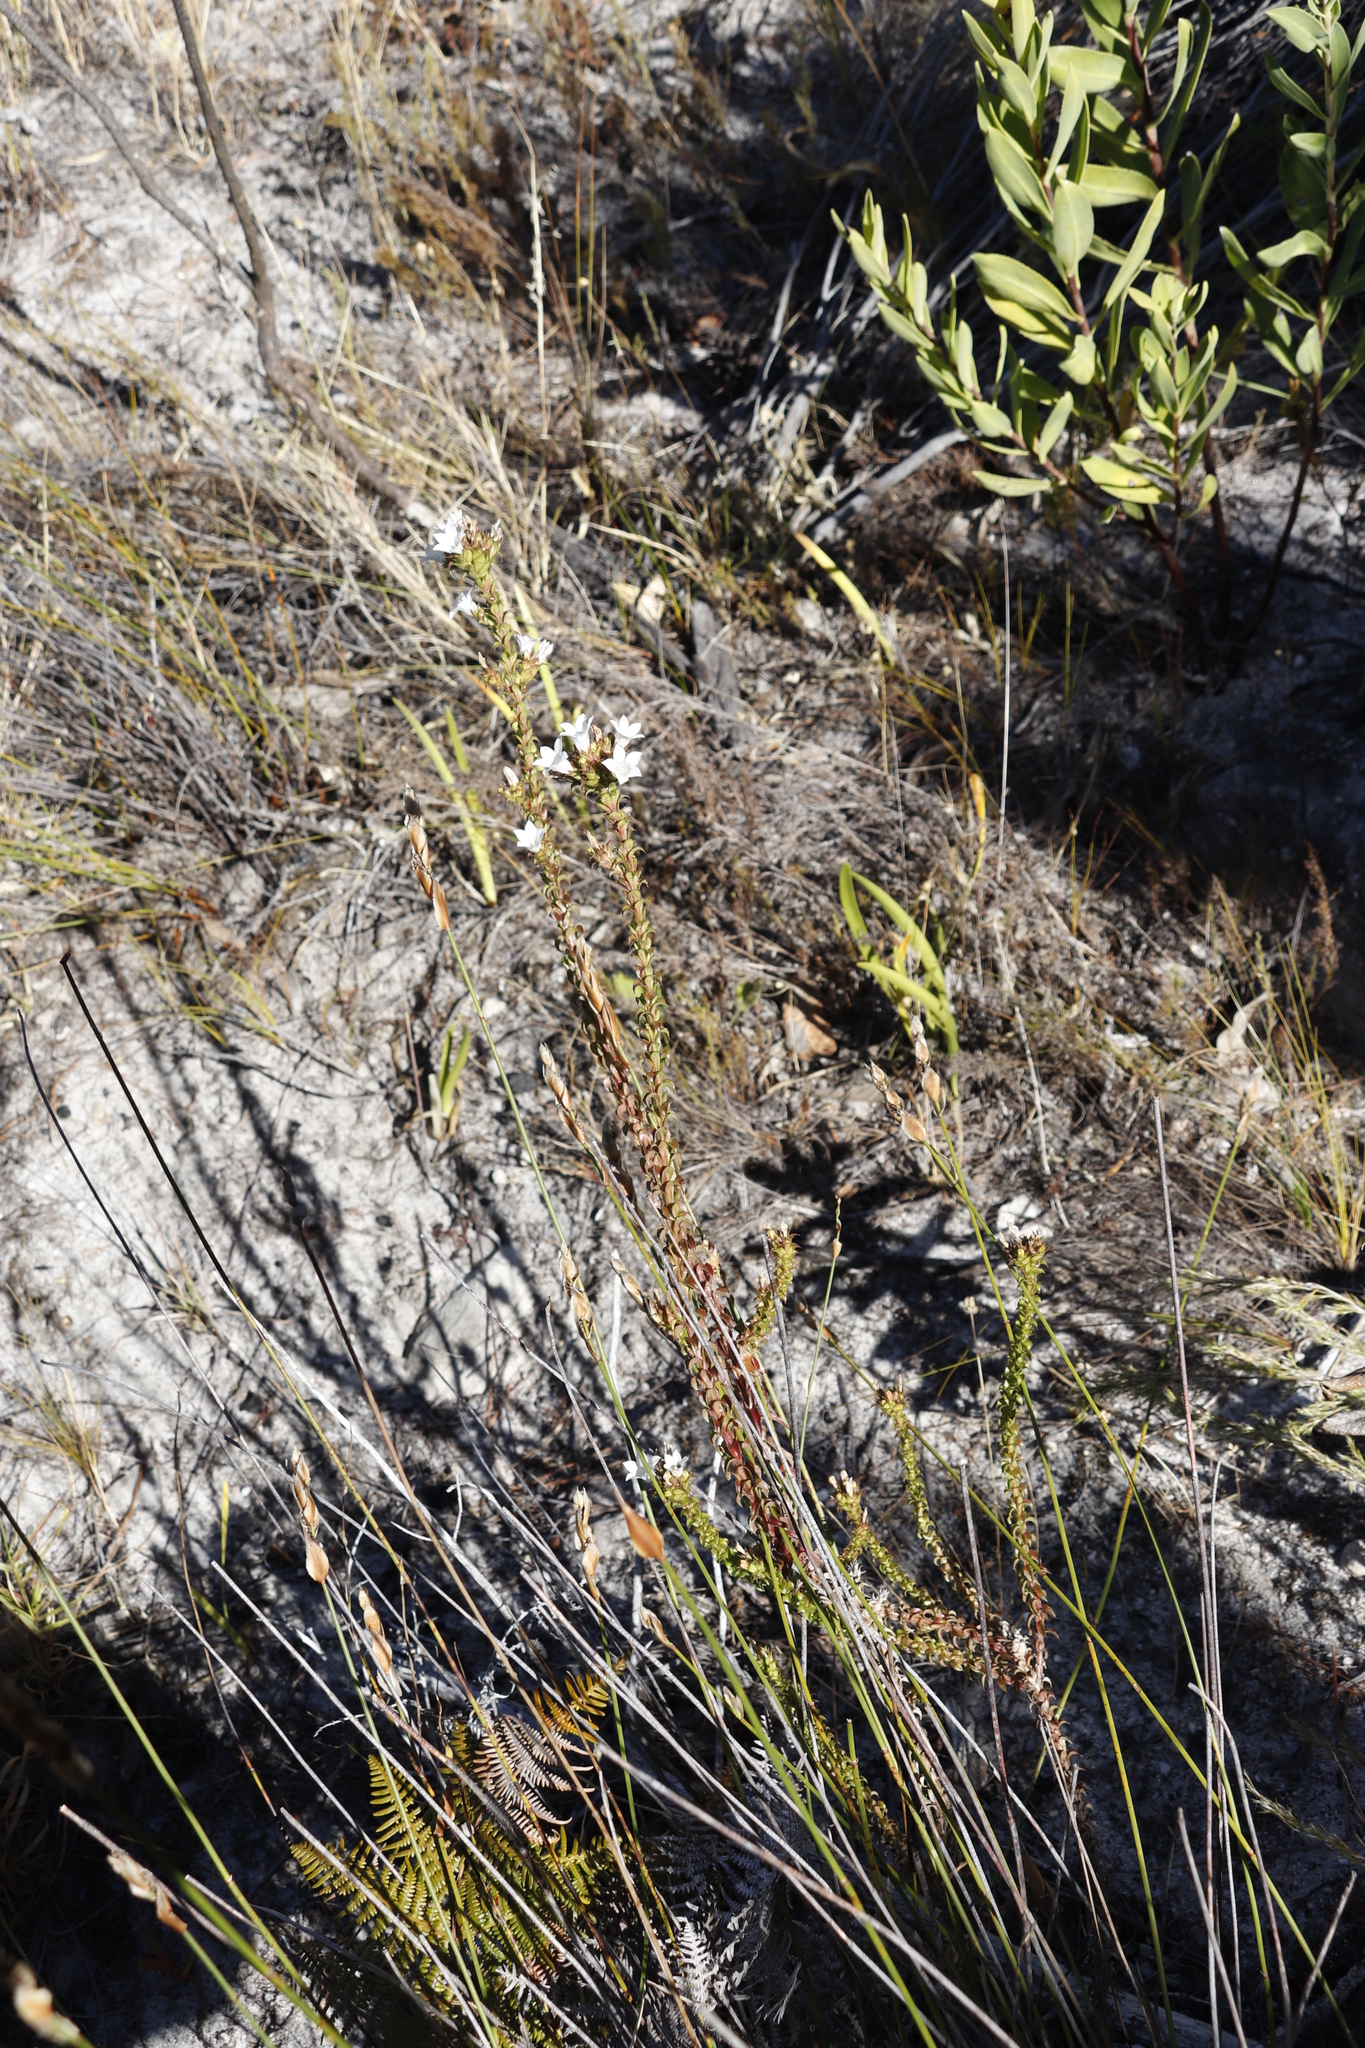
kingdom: Plantae
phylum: Tracheophyta
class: Magnoliopsida
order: Asterales
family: Campanulaceae
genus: Roella
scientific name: Roella amplexicaulis
